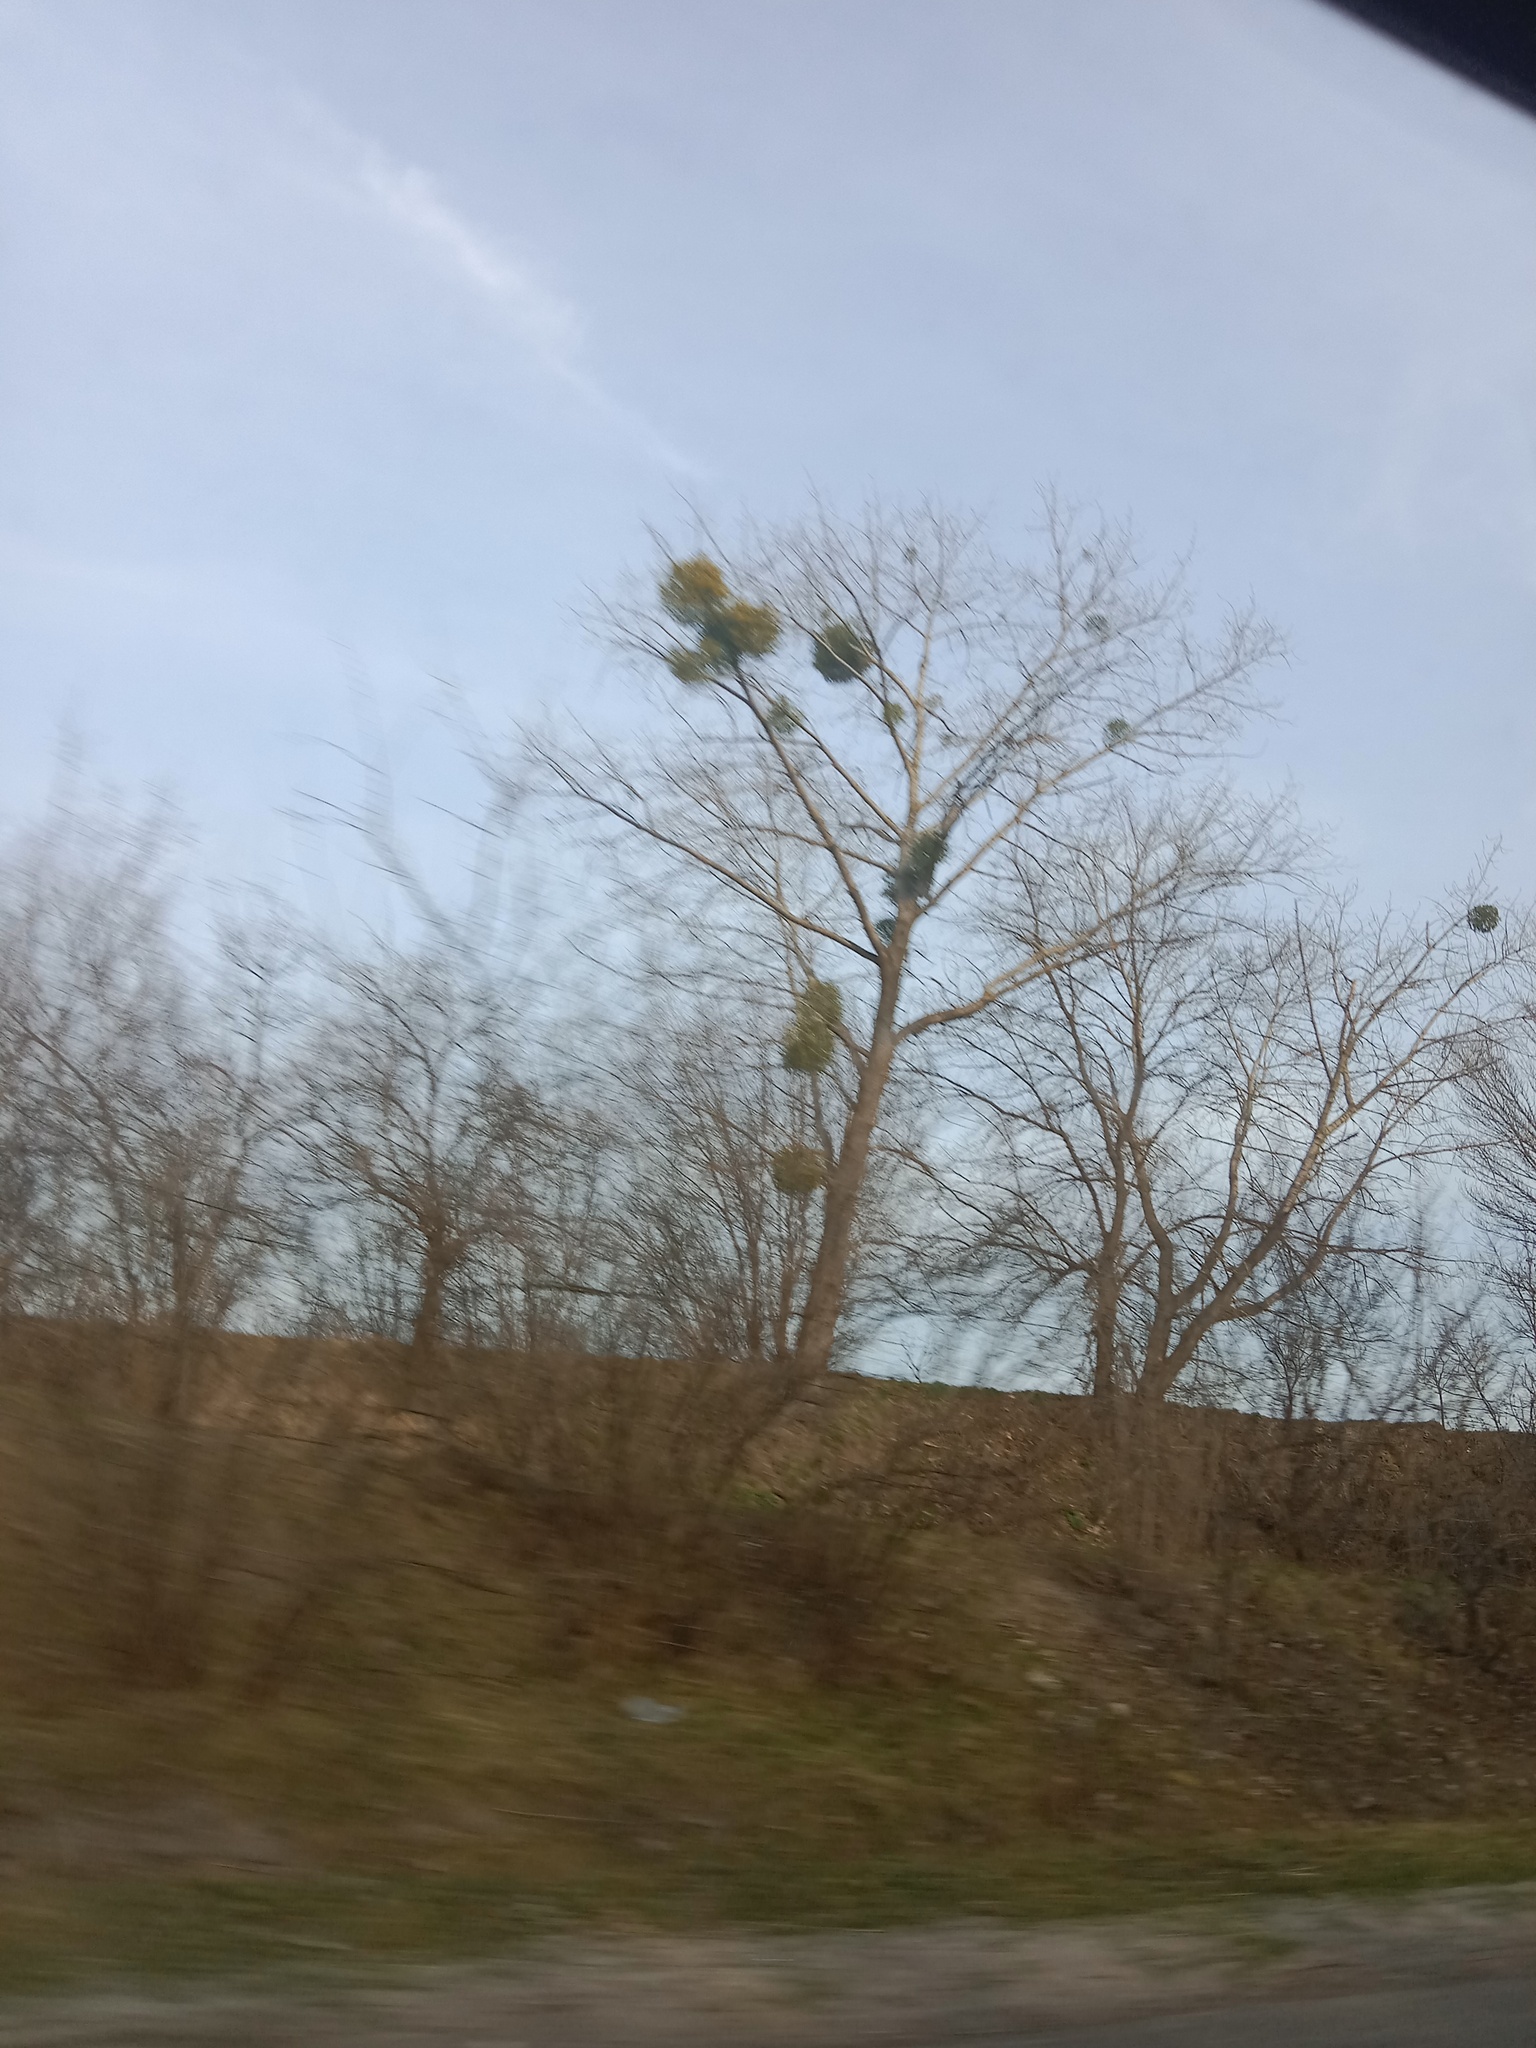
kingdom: Plantae
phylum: Tracheophyta
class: Magnoliopsida
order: Santalales
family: Viscaceae
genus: Viscum
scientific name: Viscum album
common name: Mistletoe
